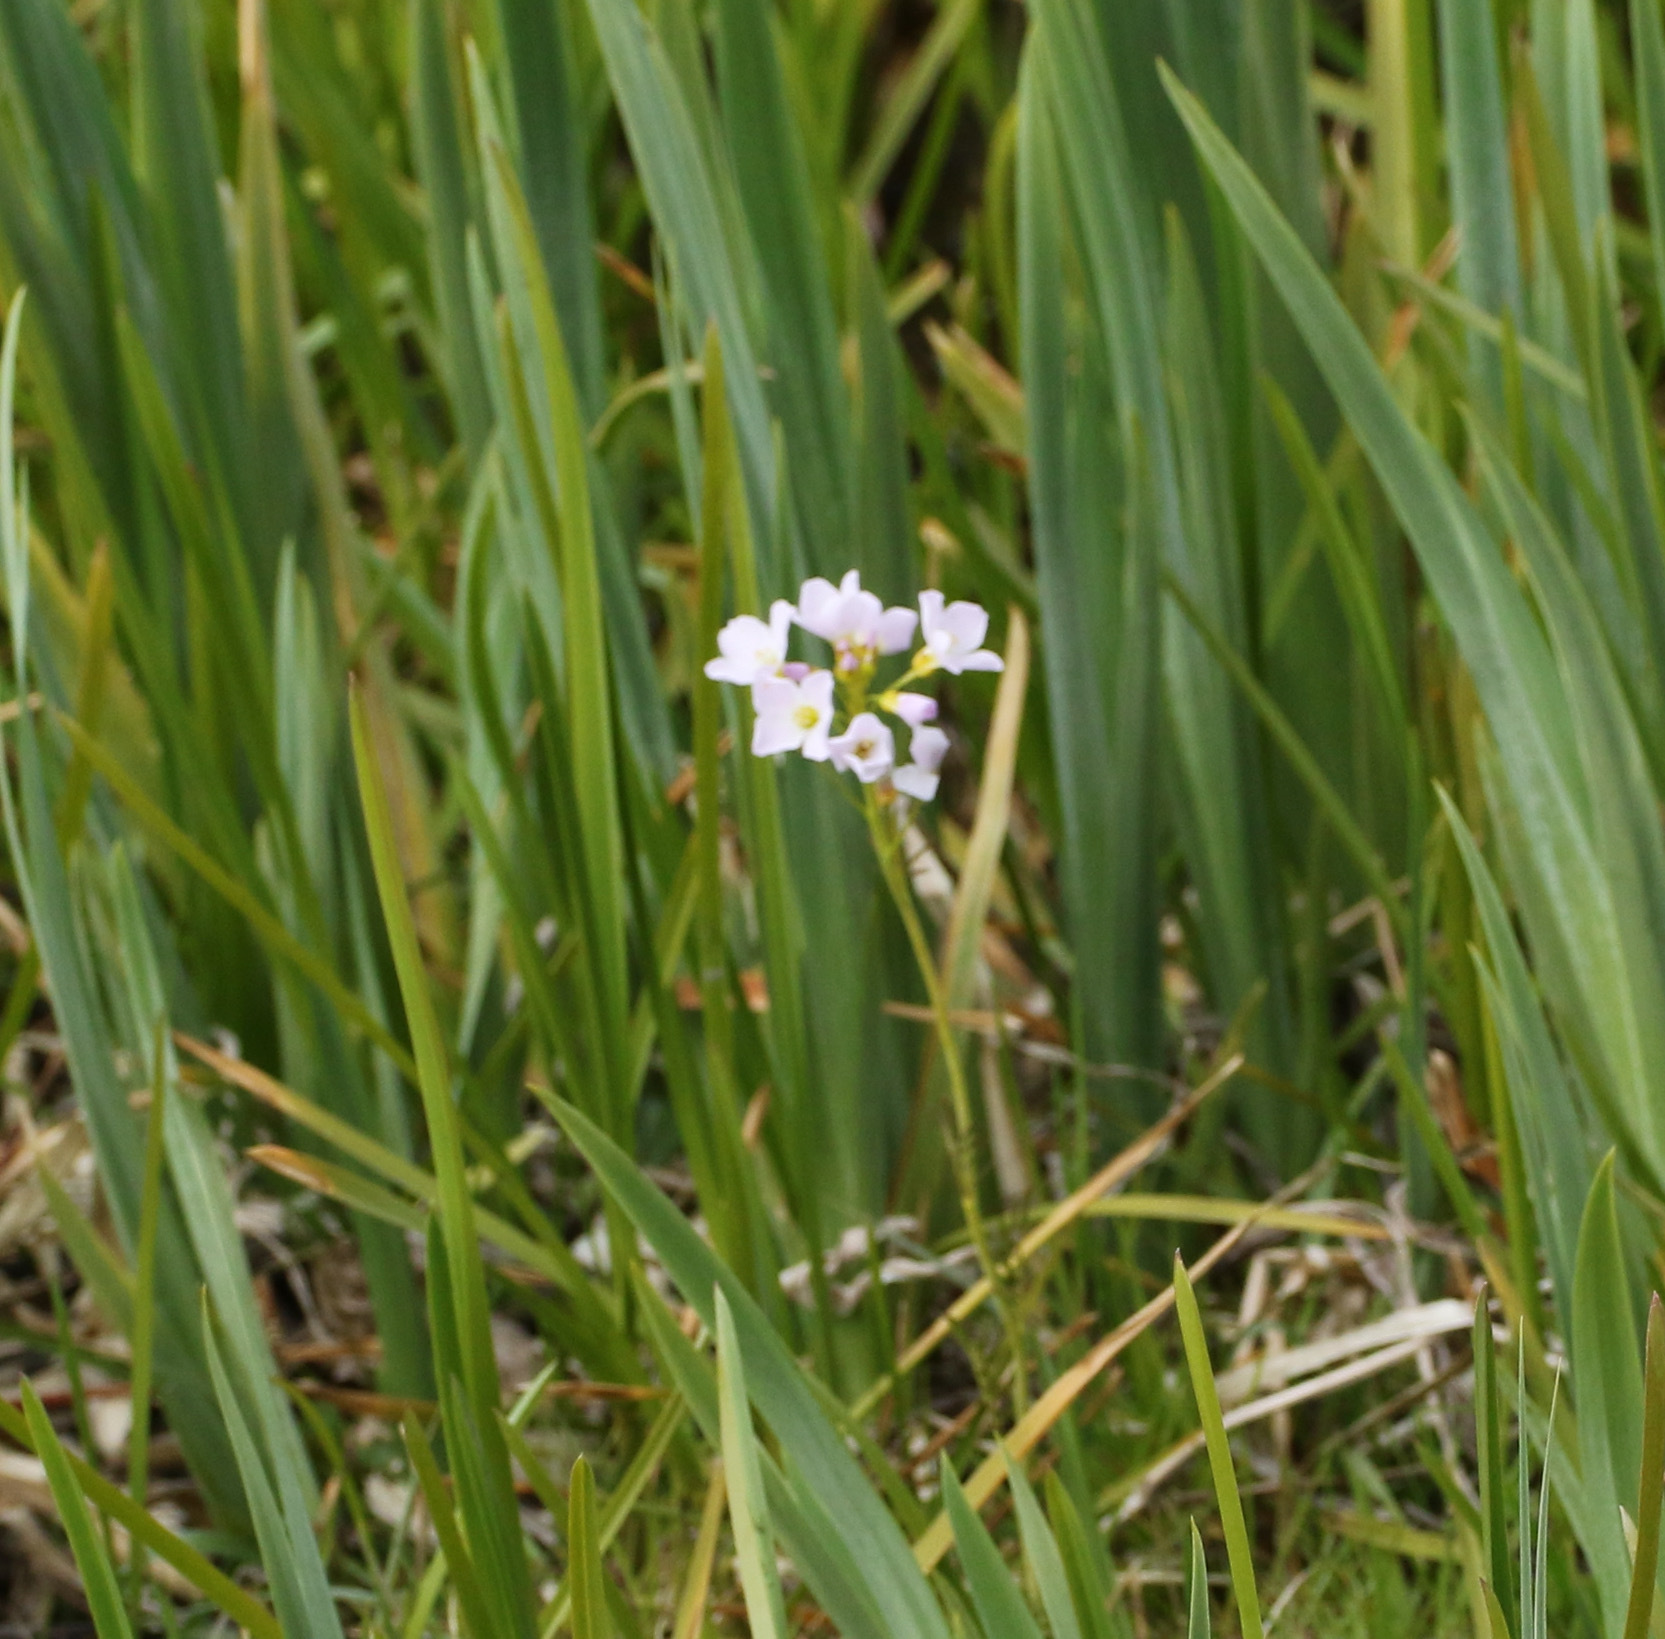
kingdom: Plantae
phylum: Tracheophyta
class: Magnoliopsida
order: Brassicales
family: Brassicaceae
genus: Cardamine
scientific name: Cardamine pratensis
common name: Cuckoo flower
